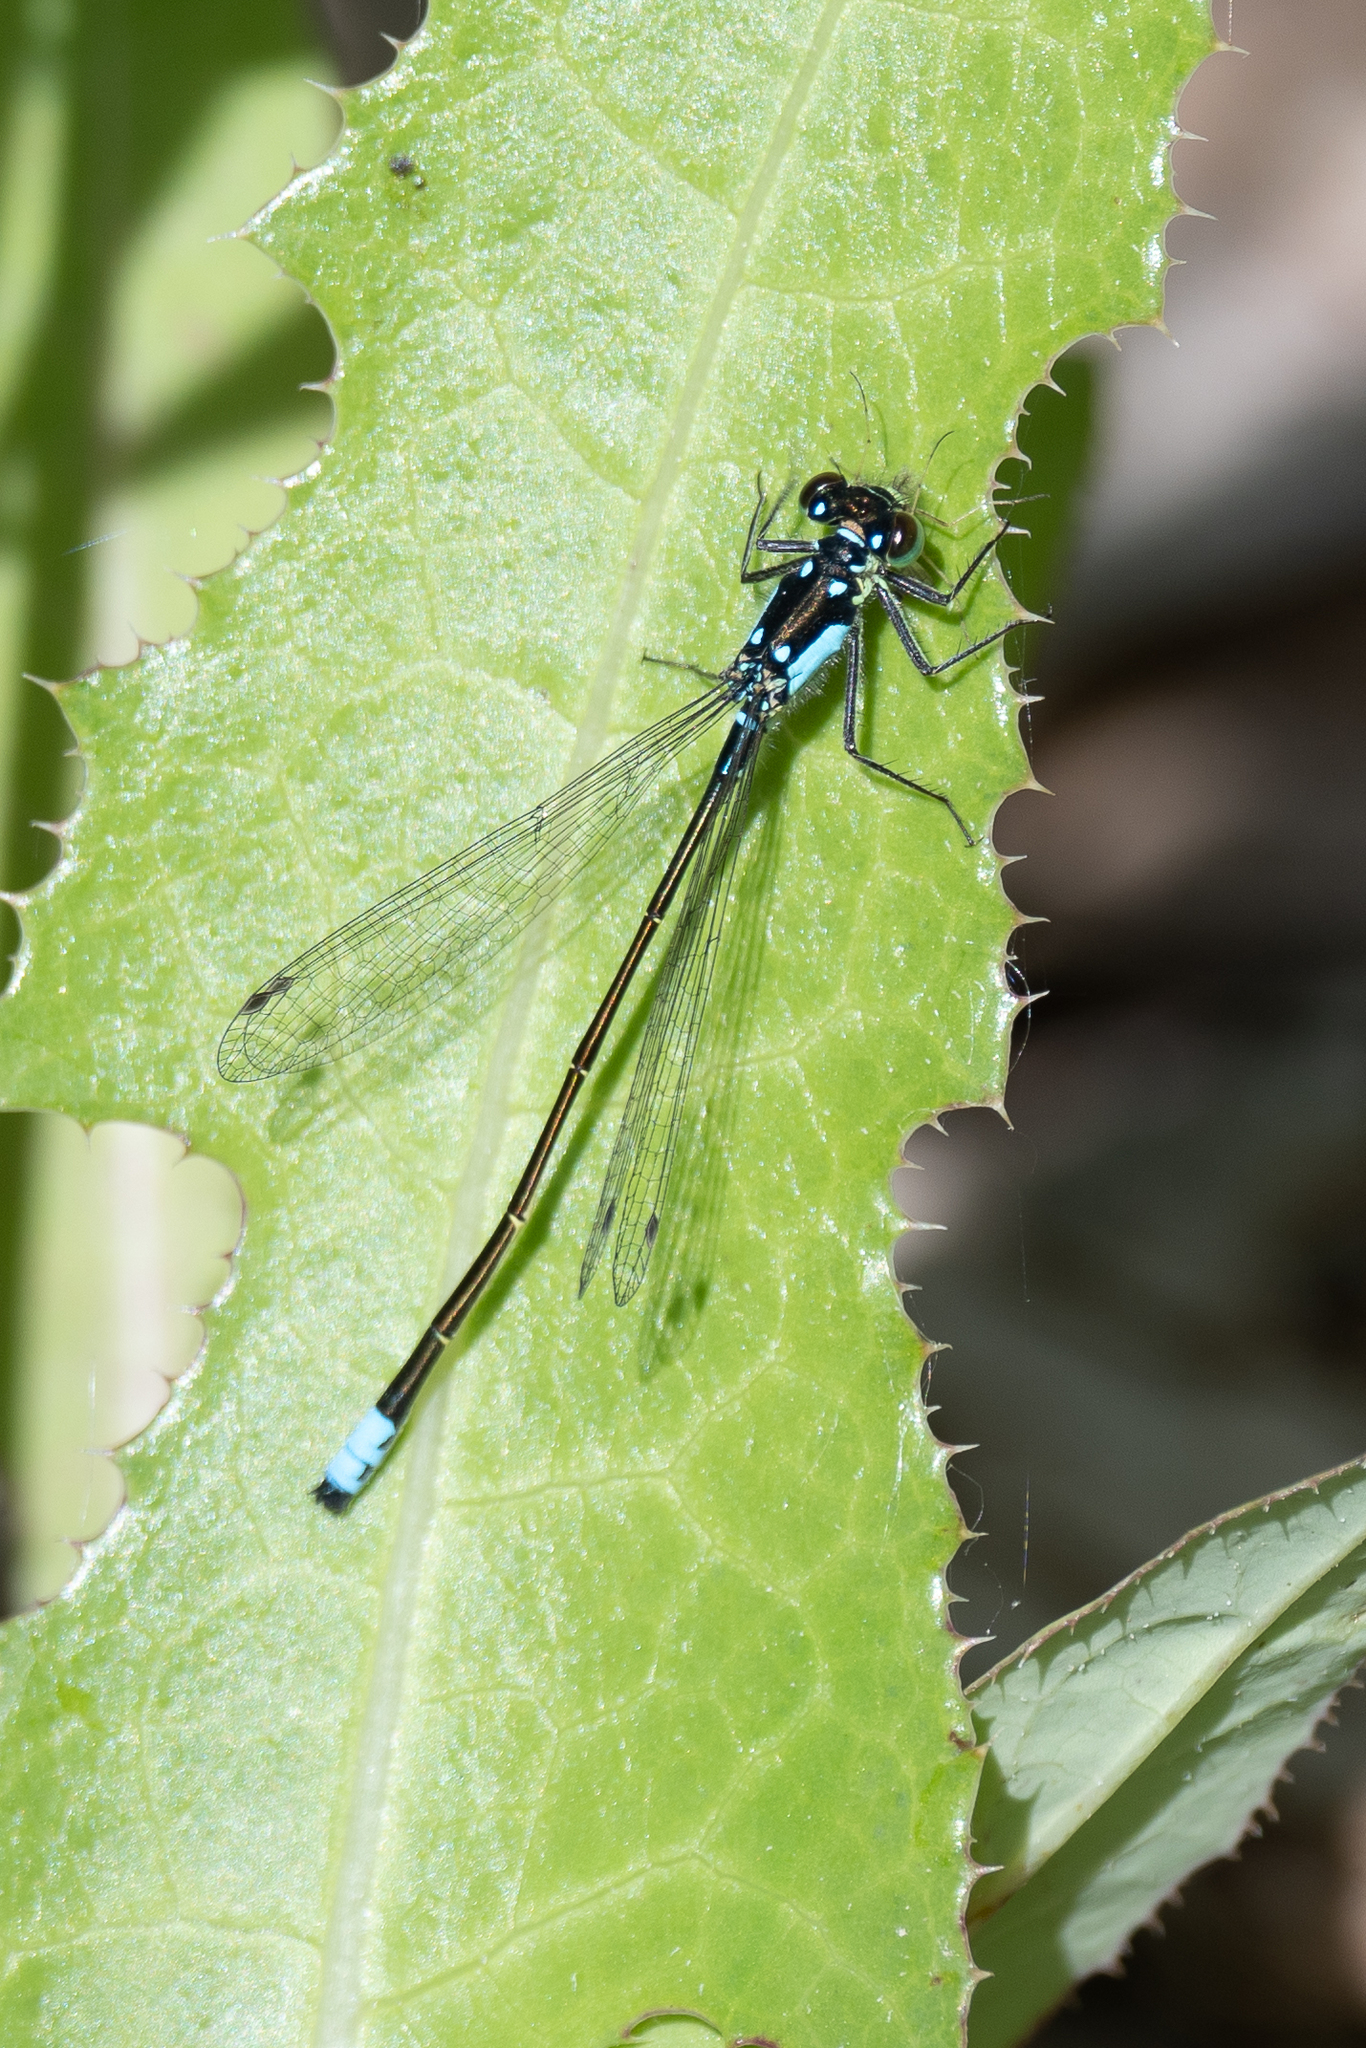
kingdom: Animalia
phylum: Arthropoda
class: Insecta
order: Odonata
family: Coenagrionidae
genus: Ischnura
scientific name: Ischnura cervula
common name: Pacific forktail
